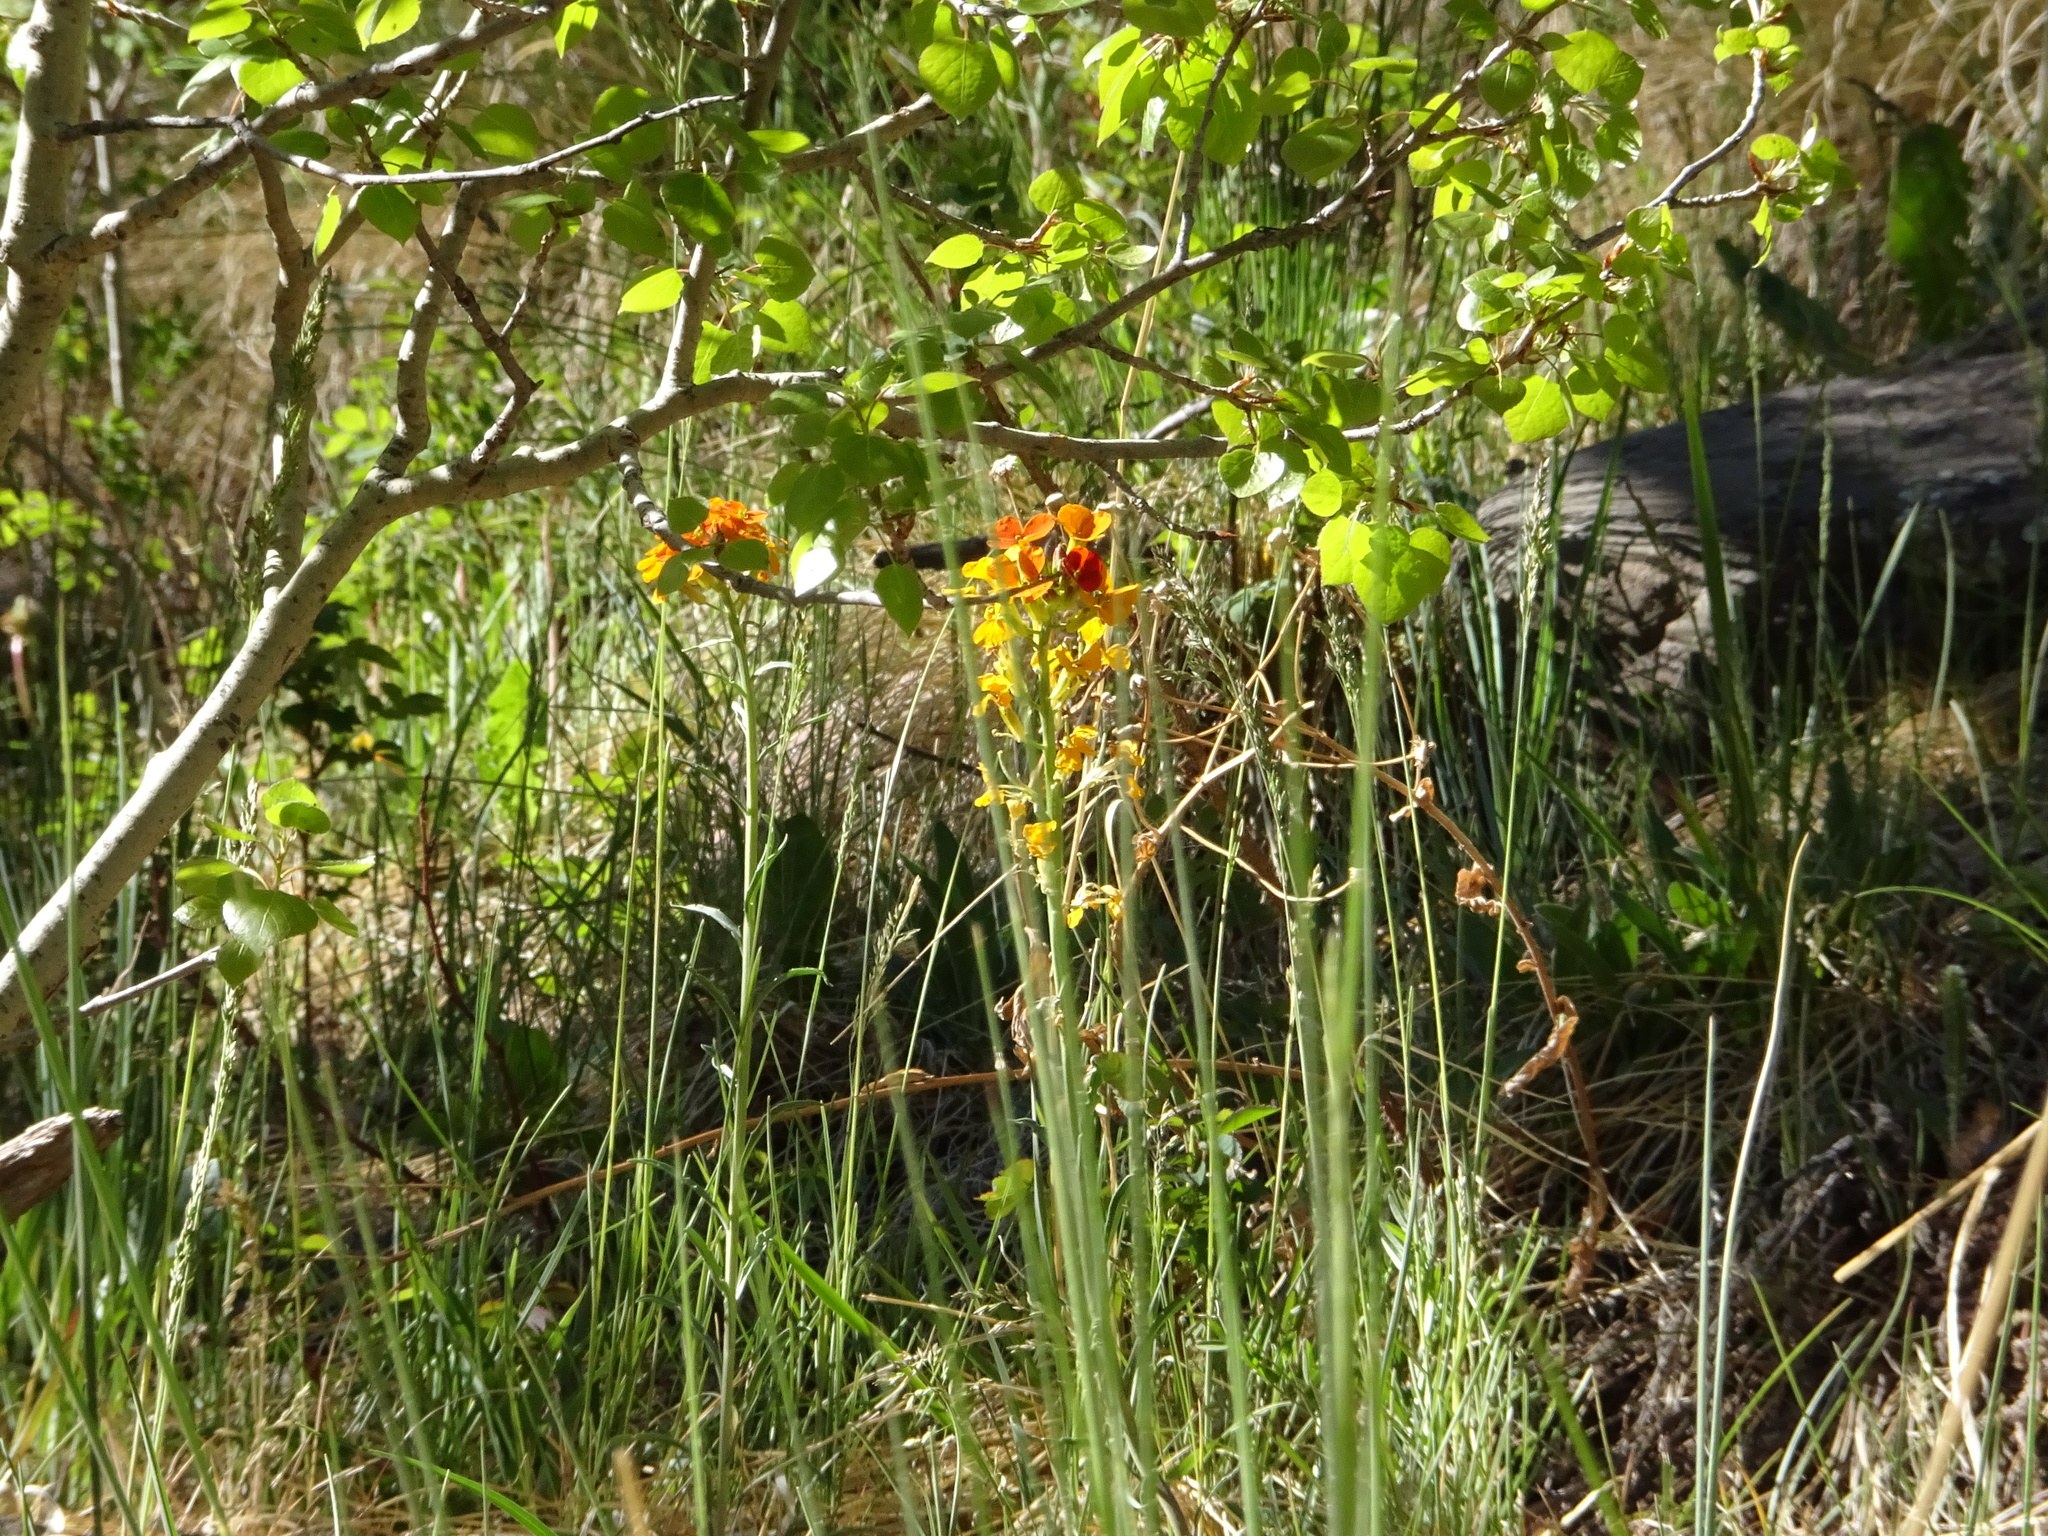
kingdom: Plantae
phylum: Tracheophyta
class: Magnoliopsida
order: Brassicales
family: Brassicaceae
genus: Erysimum
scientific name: Erysimum capitatum
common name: Western wallflower
